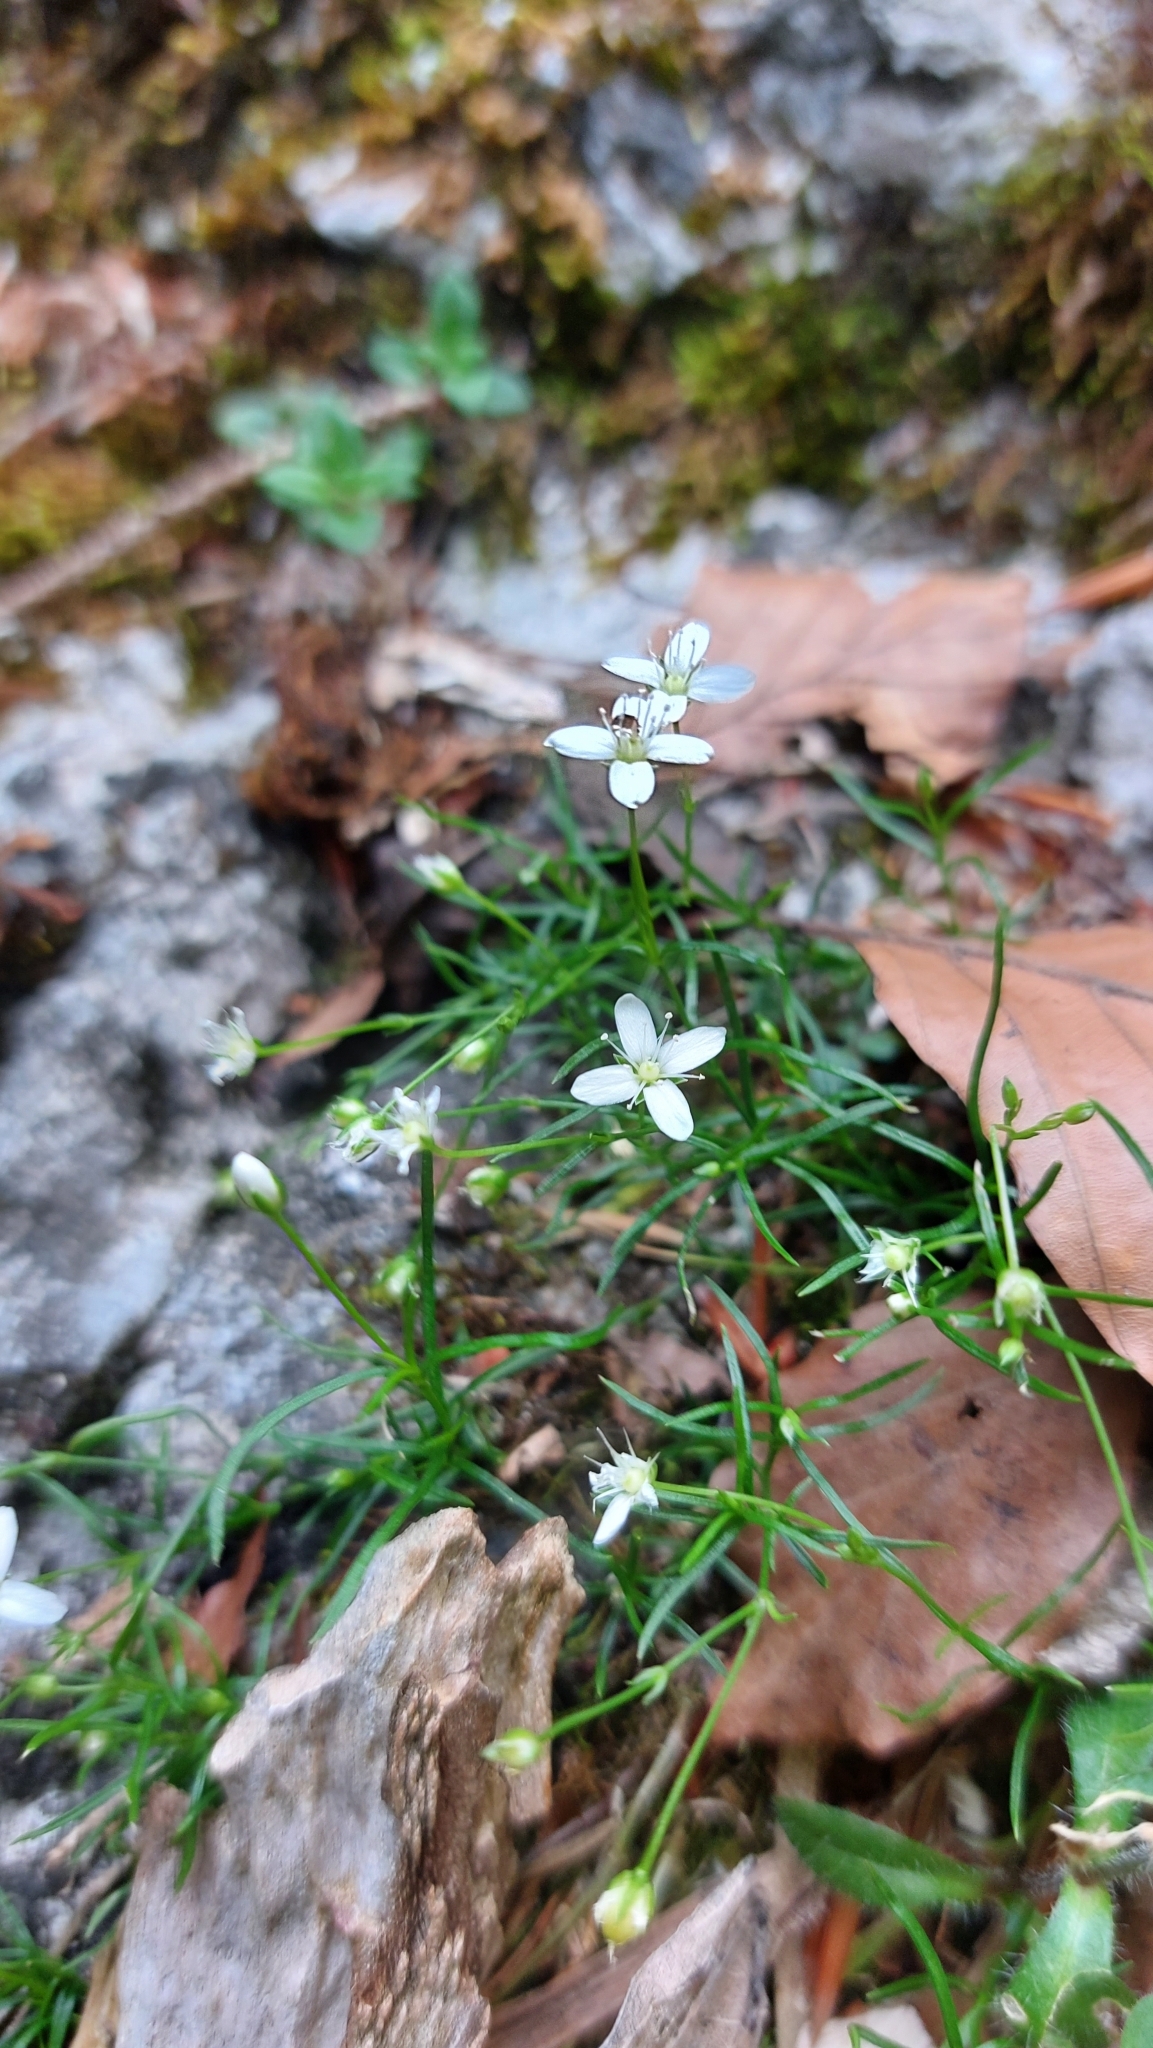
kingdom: Plantae
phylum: Tracheophyta
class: Magnoliopsida
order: Caryophyllales
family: Caryophyllaceae
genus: Moehringia
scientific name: Moehringia muscosa
